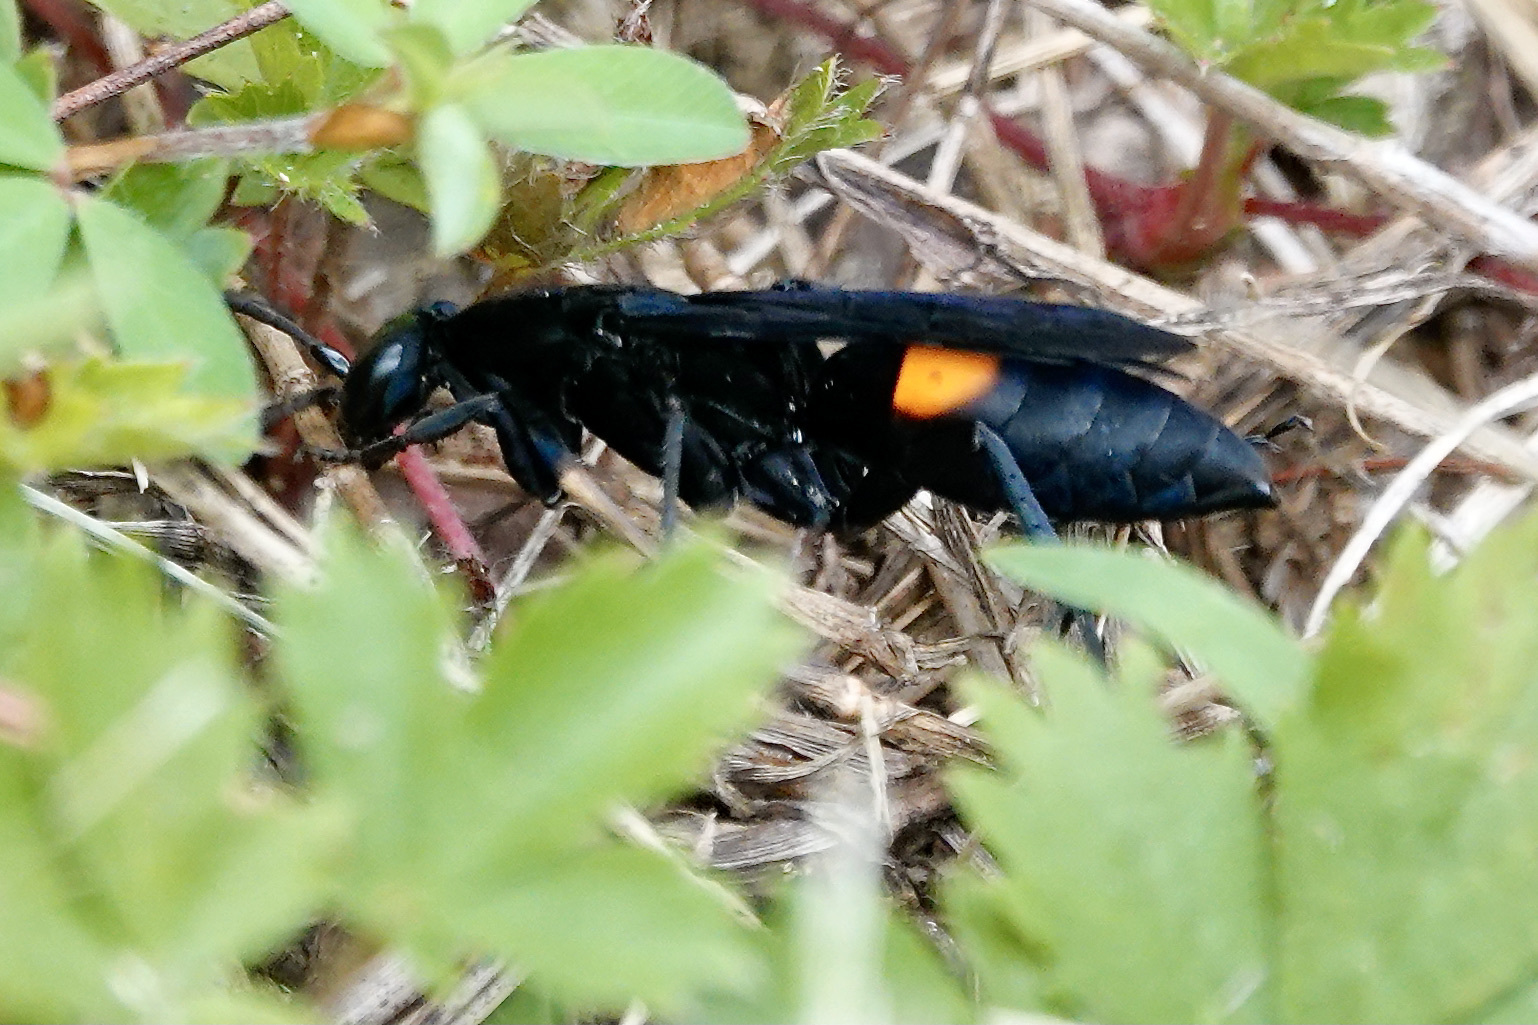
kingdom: Animalia
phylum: Arthropoda
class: Insecta
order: Hymenoptera
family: Pompilidae
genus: Psorthaspis
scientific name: Psorthaspis brimleyi
